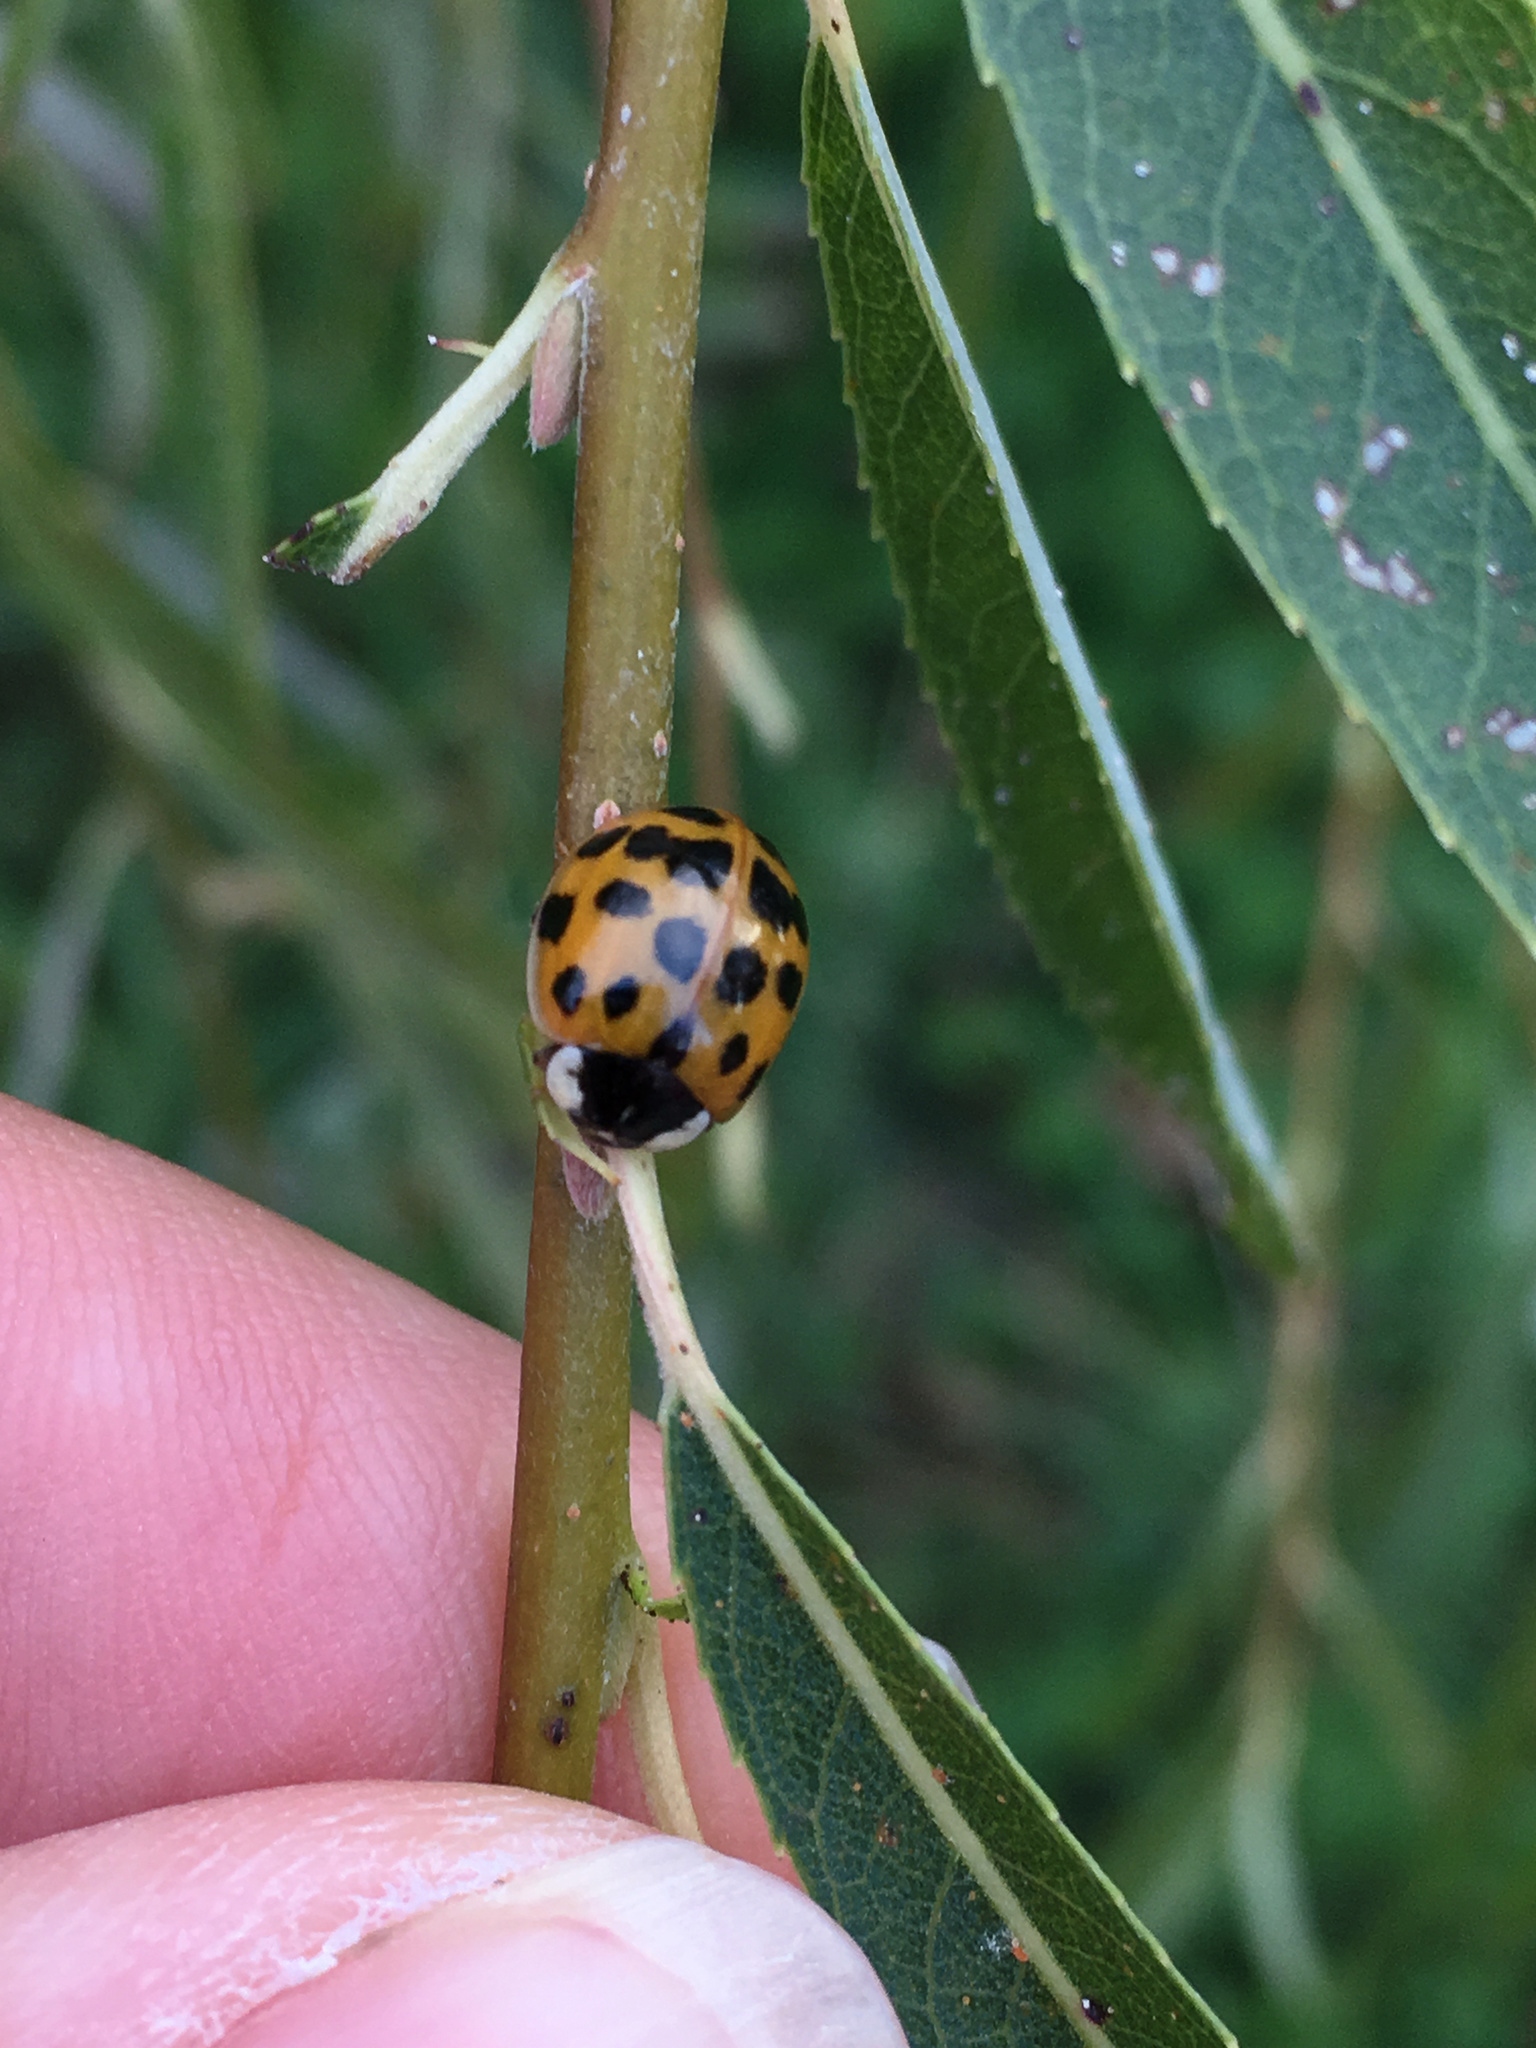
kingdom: Animalia
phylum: Arthropoda
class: Insecta
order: Coleoptera
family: Coccinellidae
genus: Harmonia
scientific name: Harmonia axyridis
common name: Harlequin ladybird
